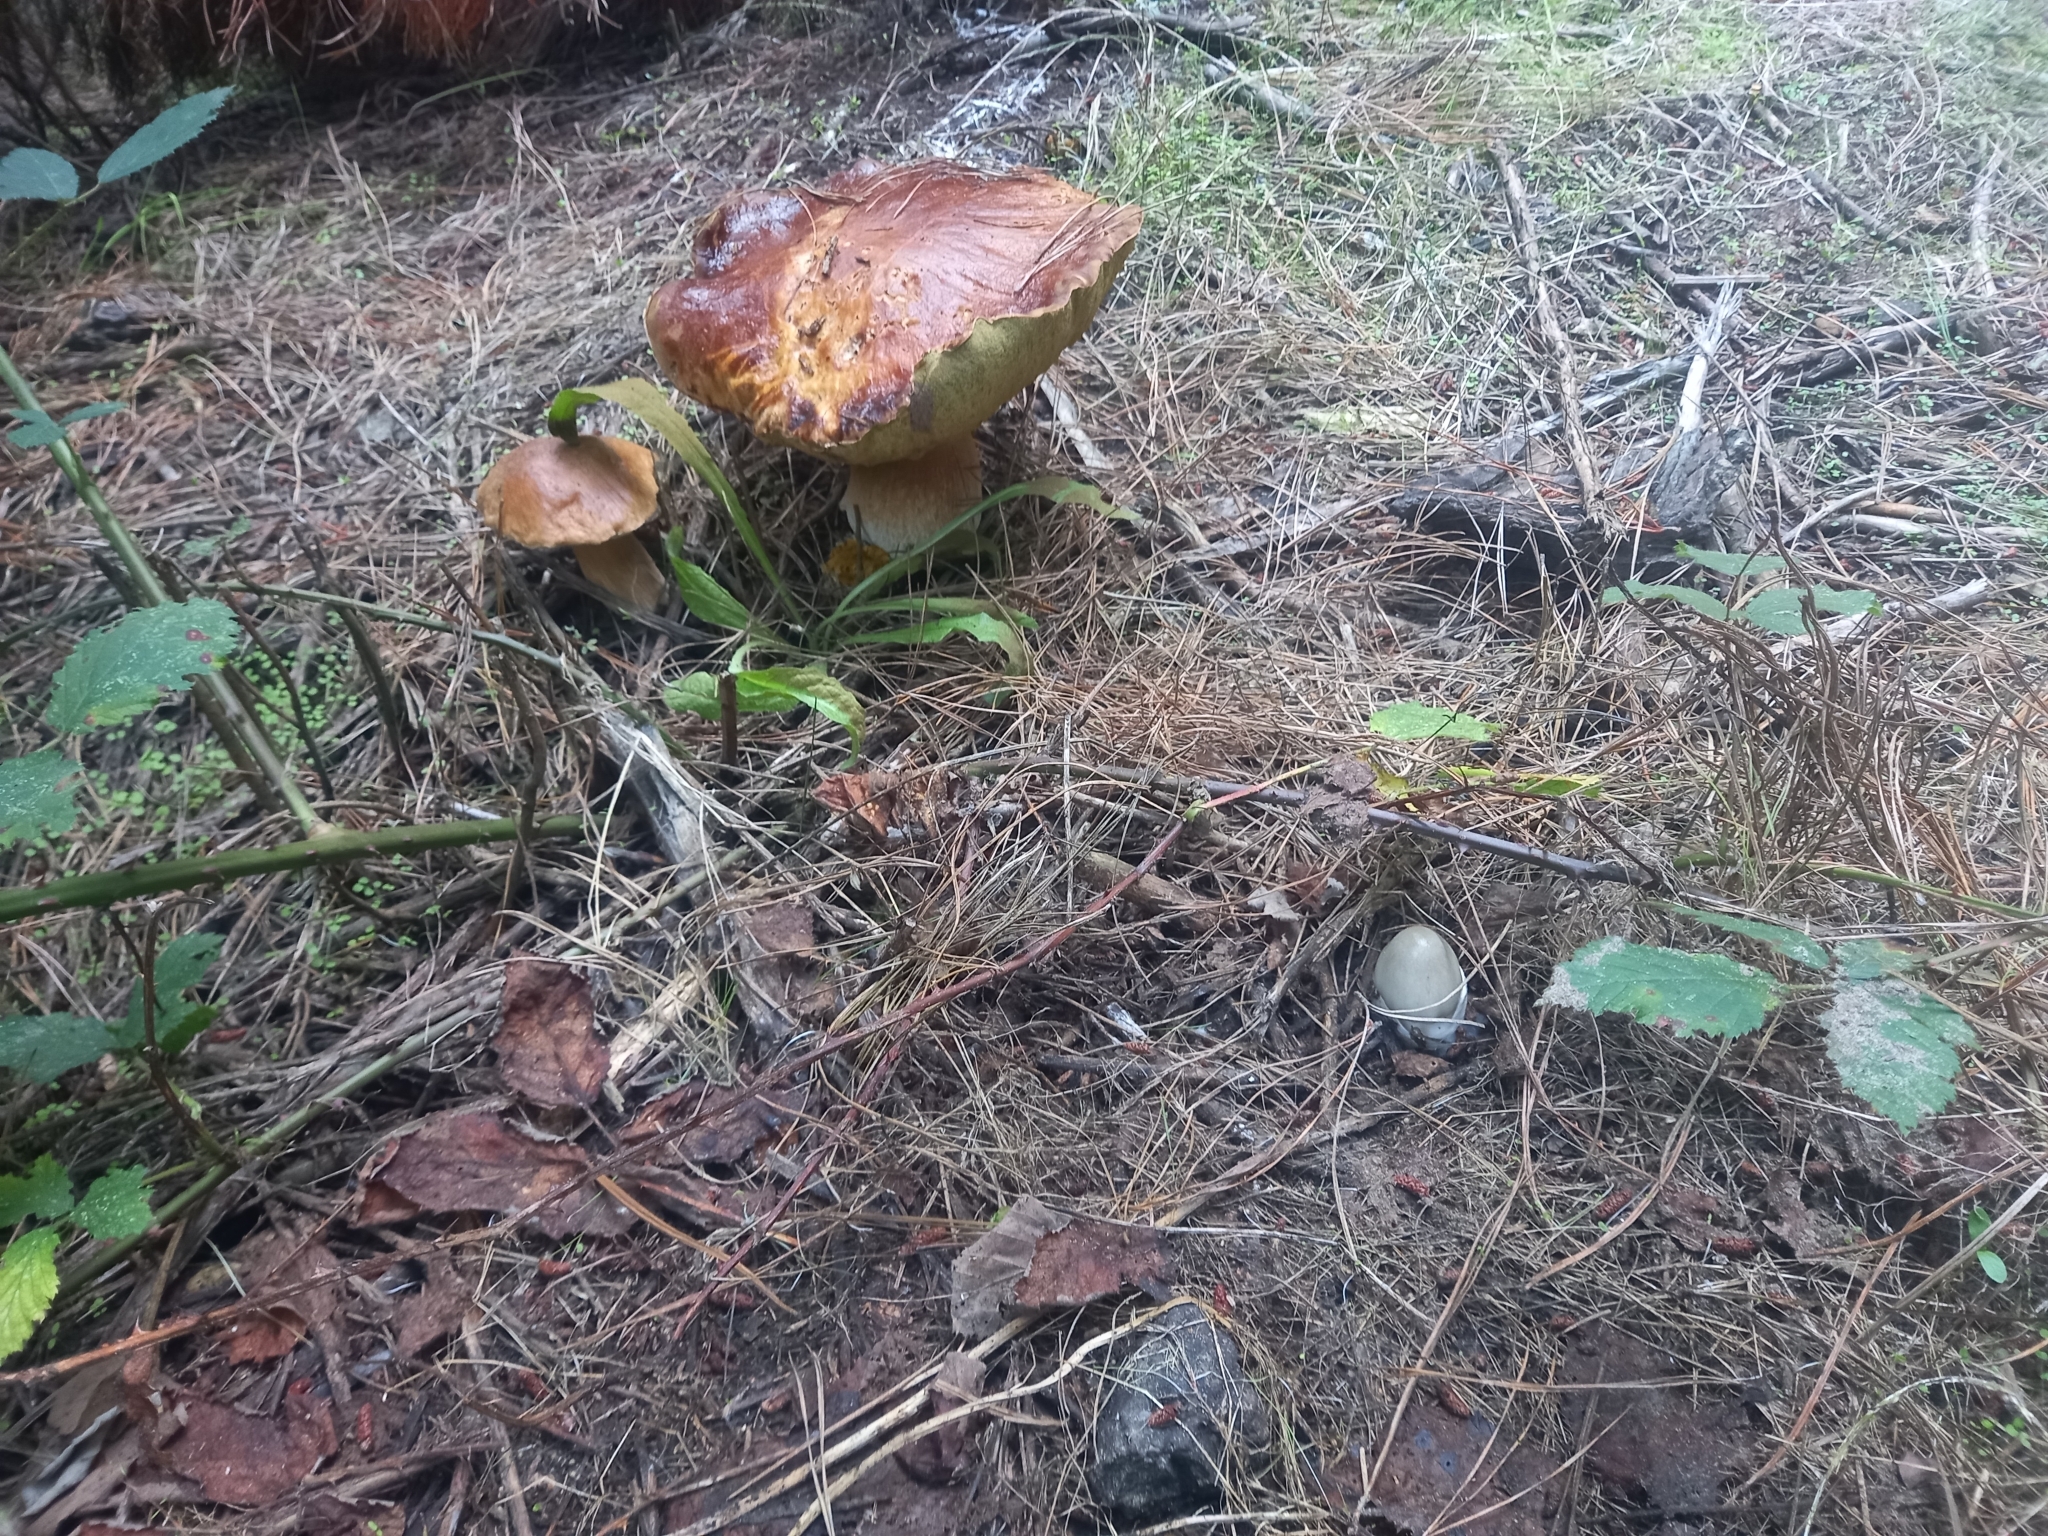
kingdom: Fungi
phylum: Basidiomycota
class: Agaricomycetes
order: Boletales
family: Boletaceae
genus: Boletus
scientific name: Boletus edulis
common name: Cep
